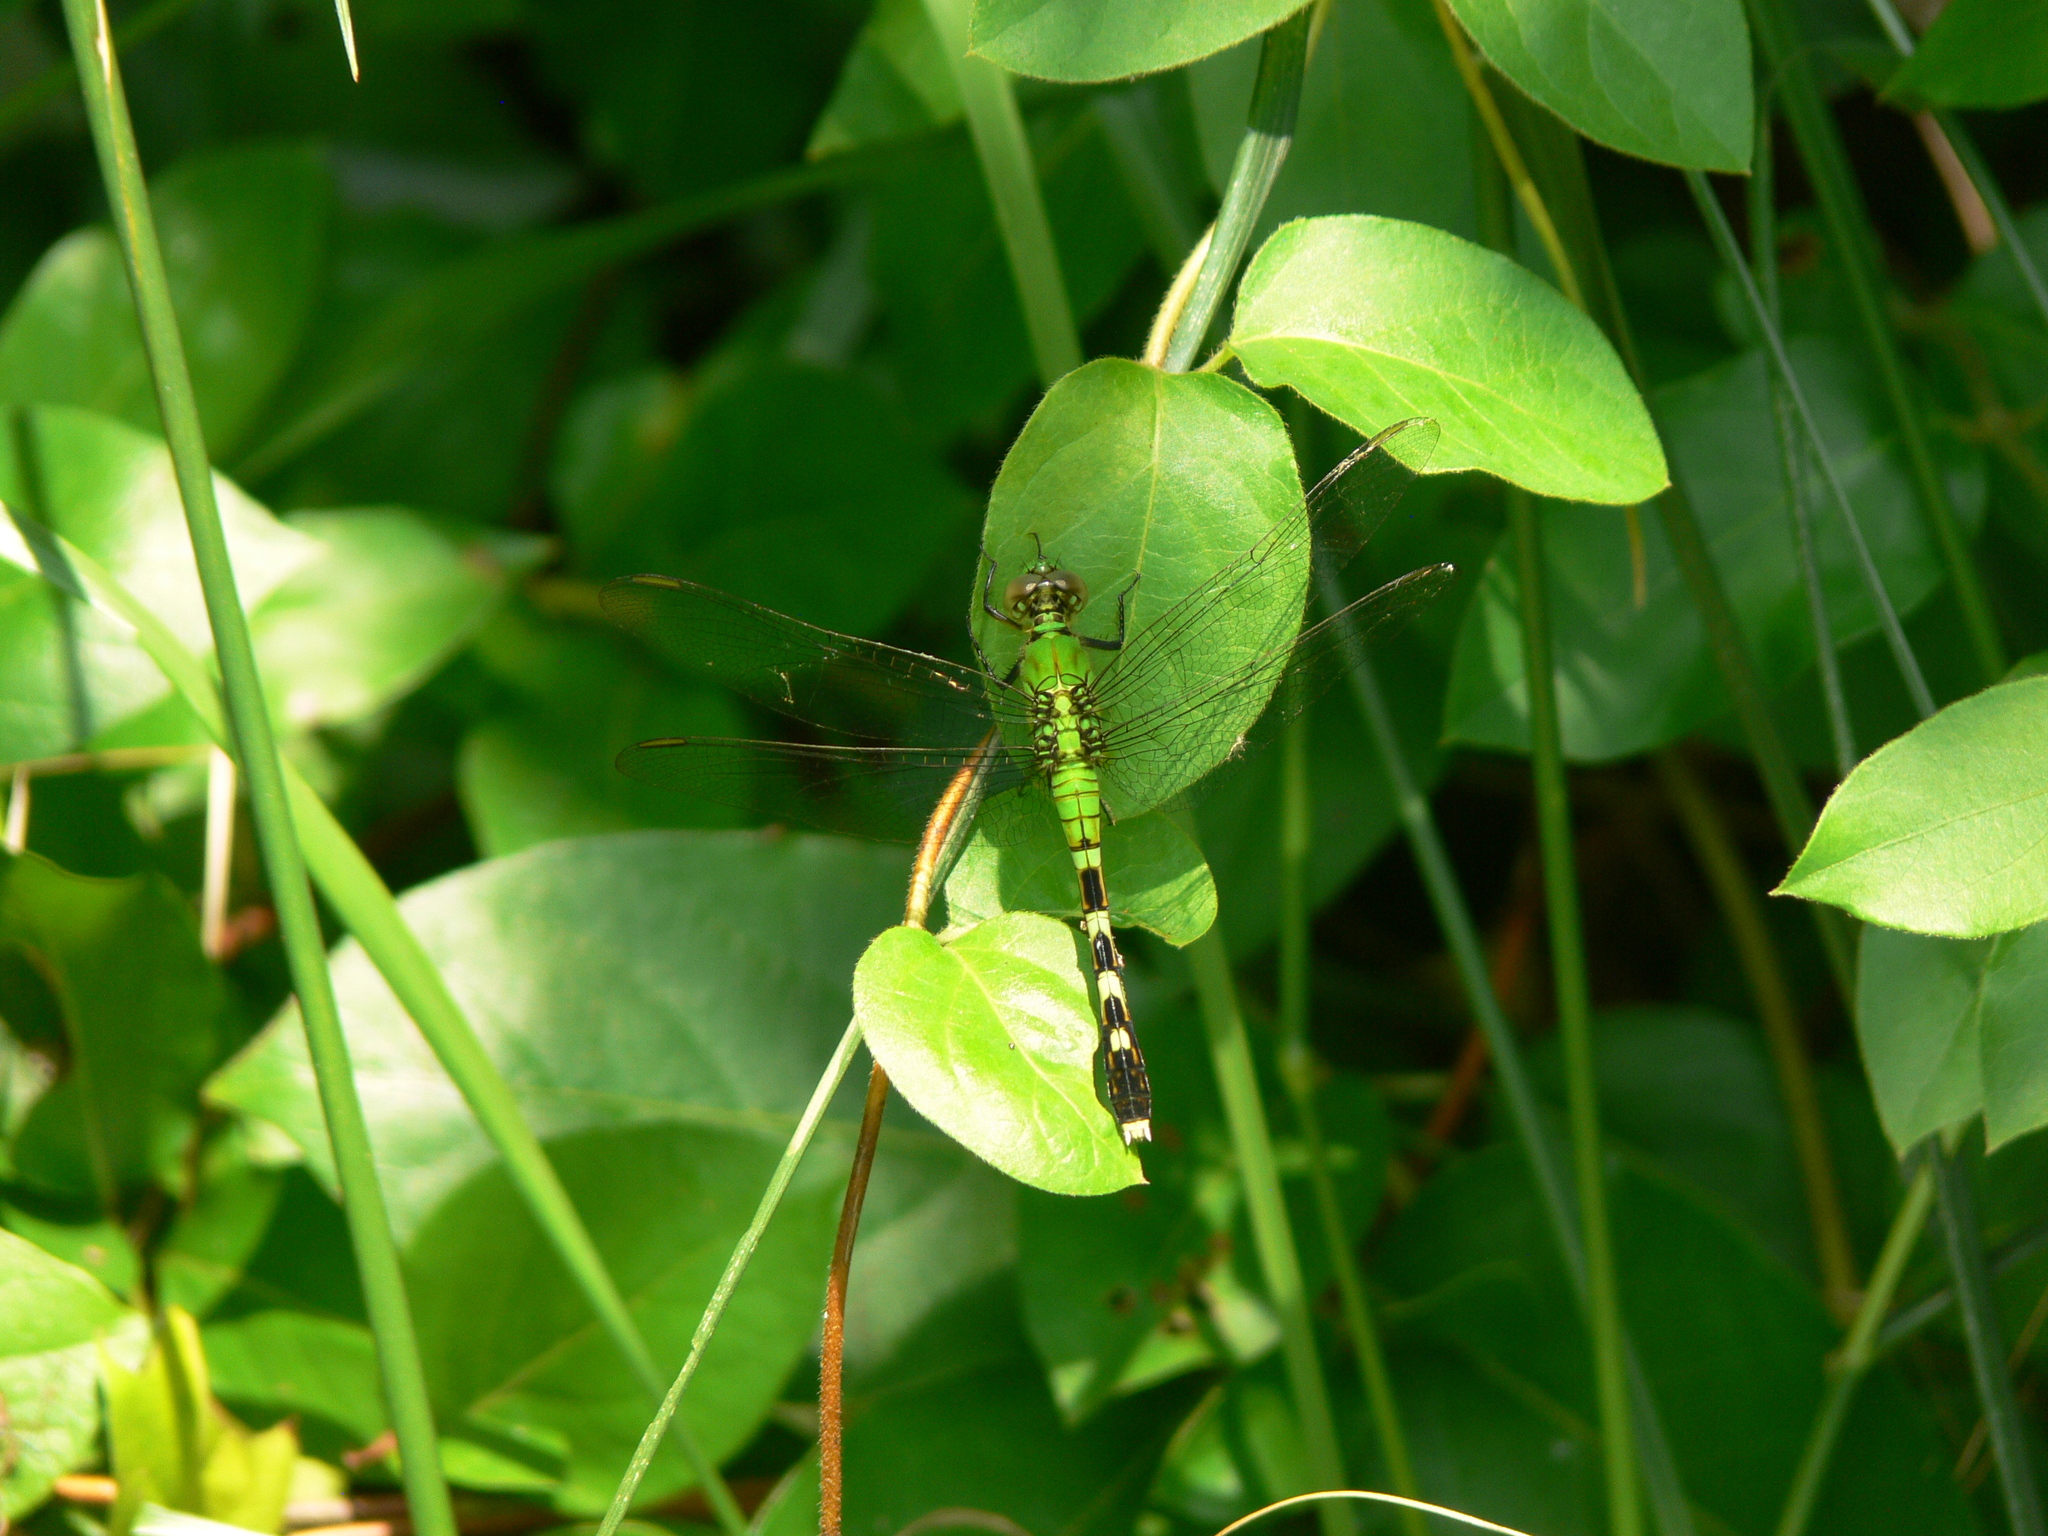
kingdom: Animalia
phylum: Arthropoda
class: Insecta
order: Odonata
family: Libellulidae
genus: Erythemis
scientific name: Erythemis simplicicollis
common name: Eastern pondhawk
